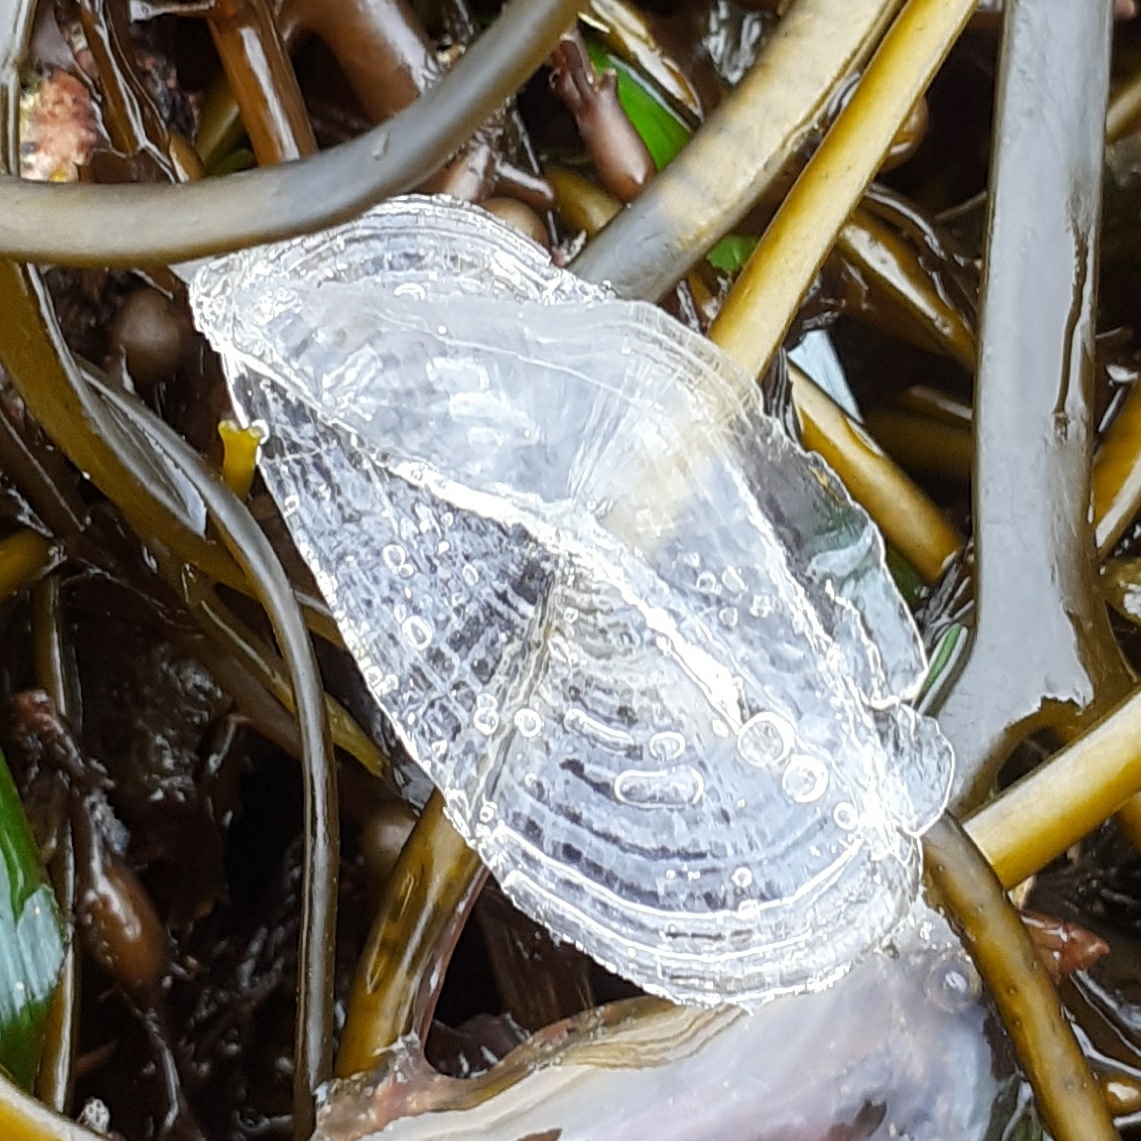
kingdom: Animalia
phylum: Cnidaria
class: Hydrozoa
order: Anthoathecata
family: Porpitidae
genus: Velella
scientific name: Velella velella
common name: By-the-wind-sailor
